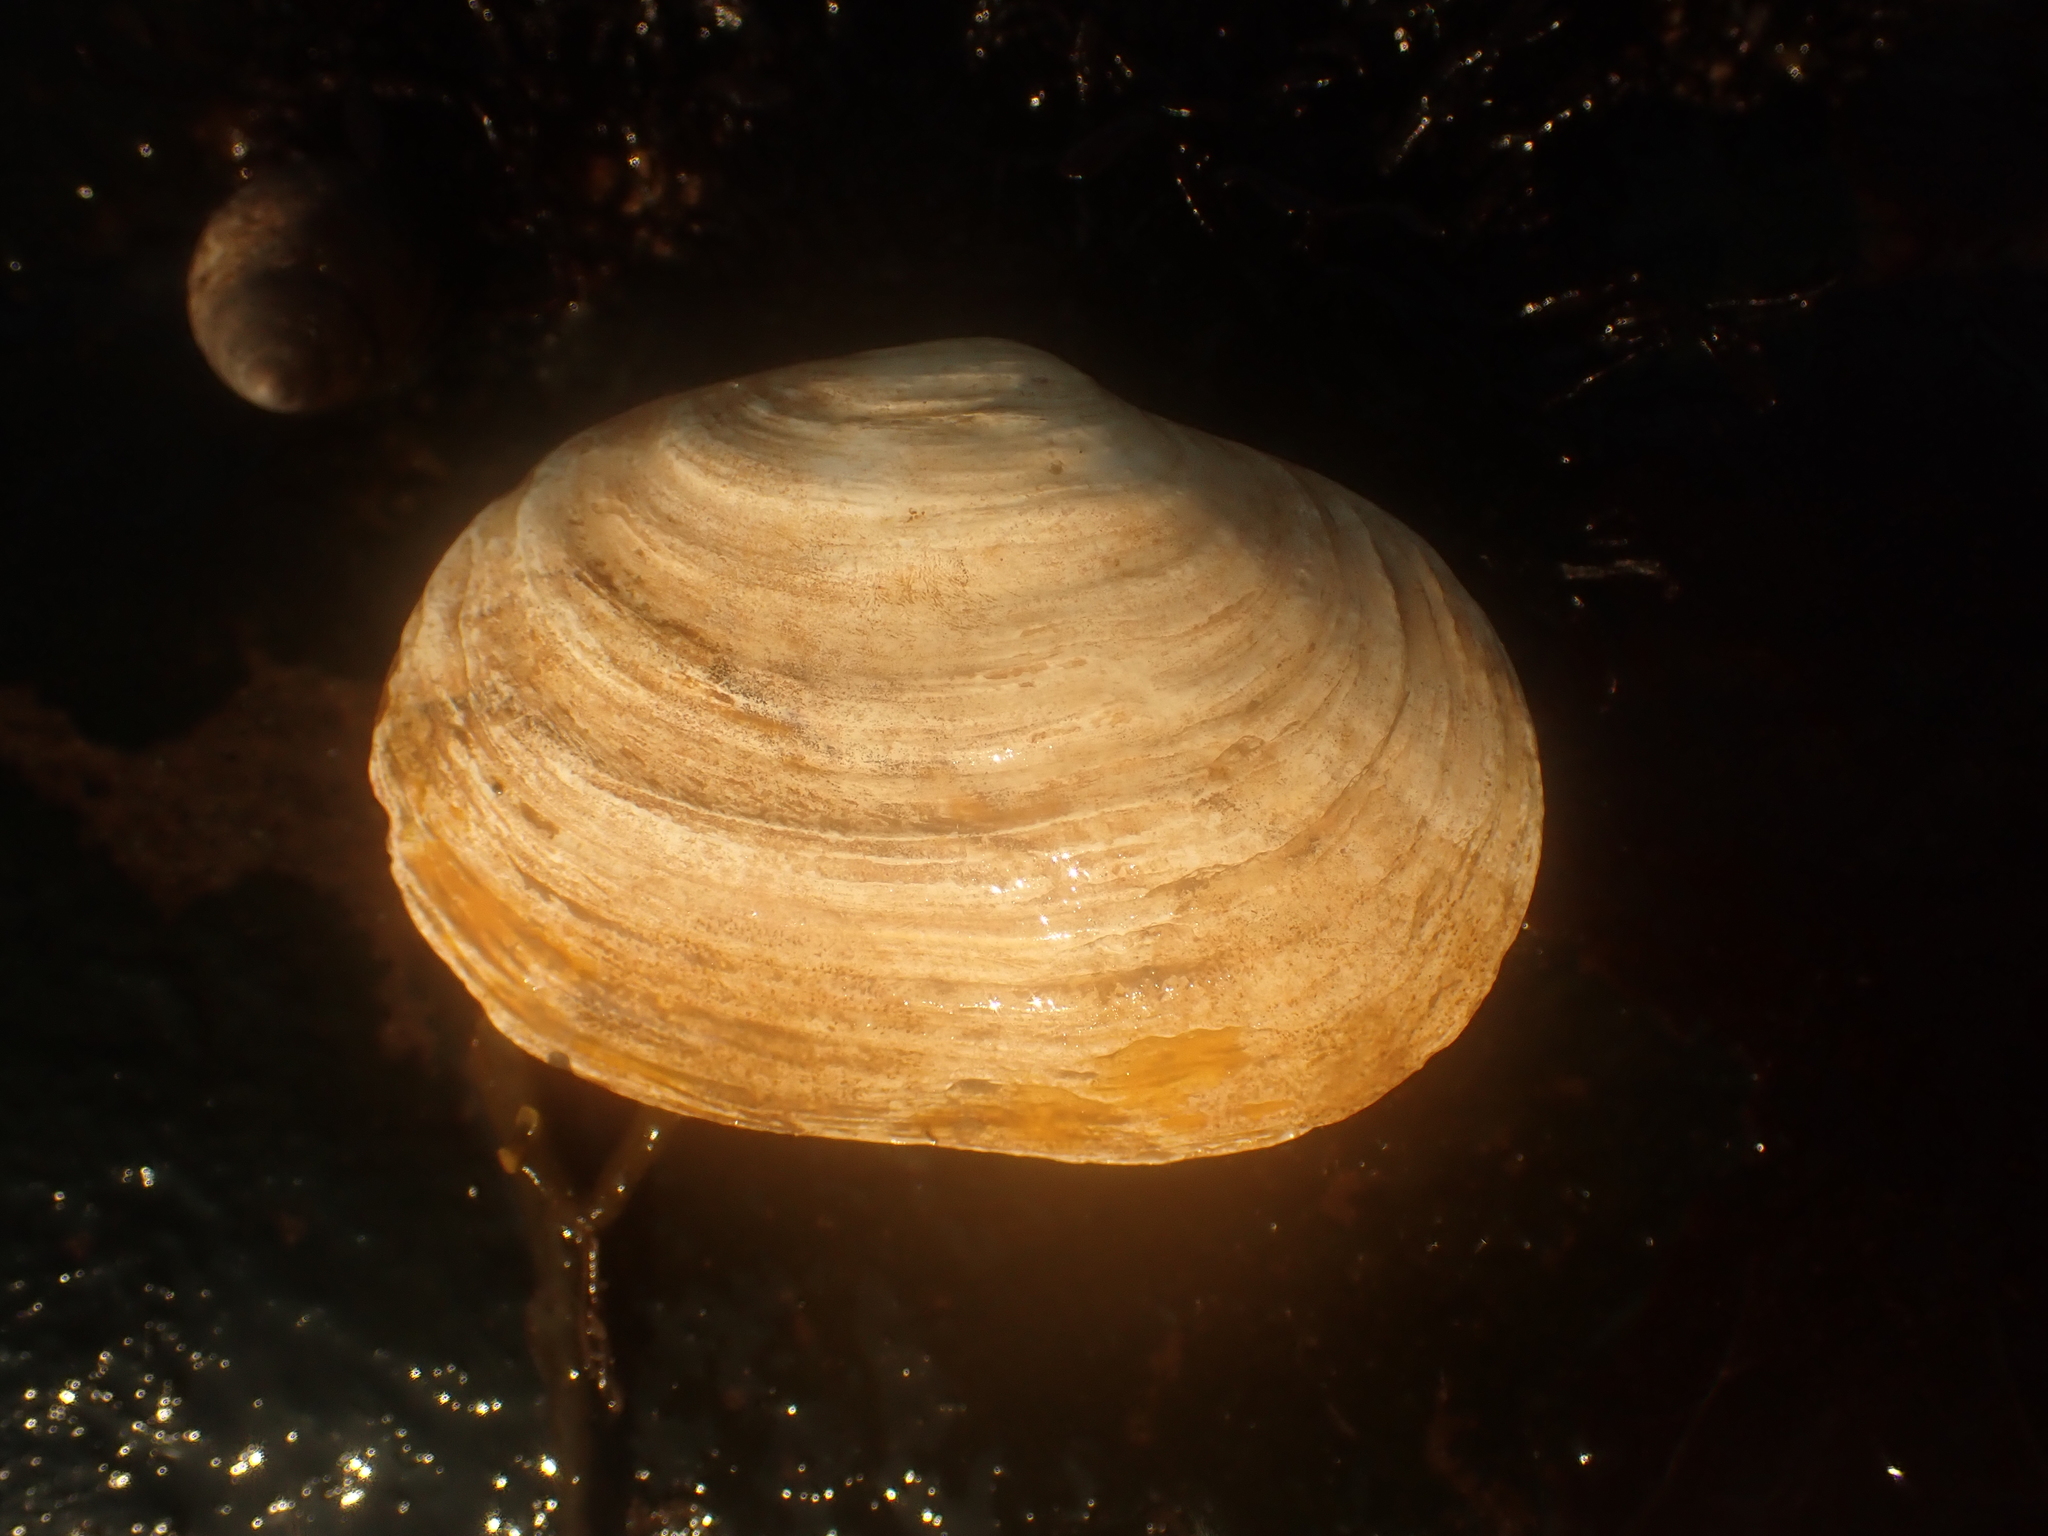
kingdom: Animalia
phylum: Mollusca
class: Bivalvia
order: Myida
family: Myidae
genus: Mya
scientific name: Mya arenaria
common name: Soft-shelled clam
